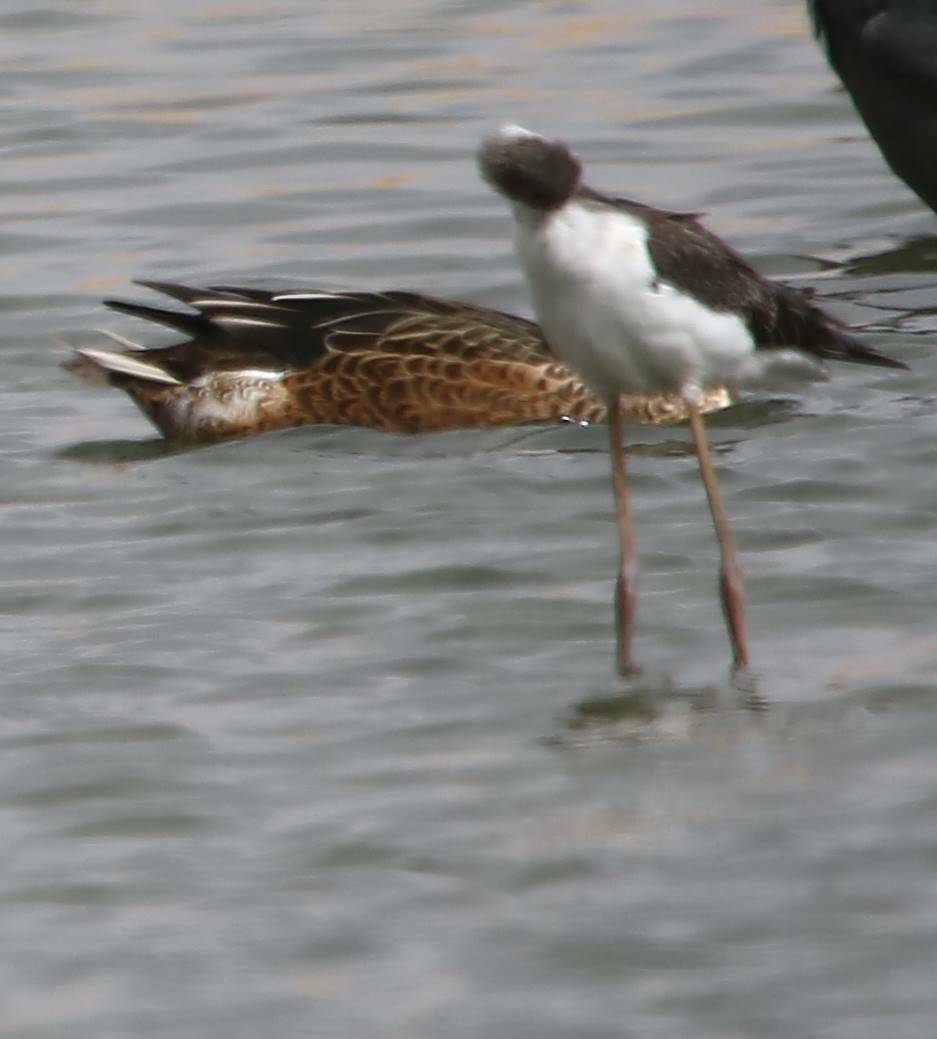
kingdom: Animalia
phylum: Chordata
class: Aves
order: Charadriiformes
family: Recurvirostridae
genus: Himantopus
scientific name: Himantopus himantopus
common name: Black-winged stilt
